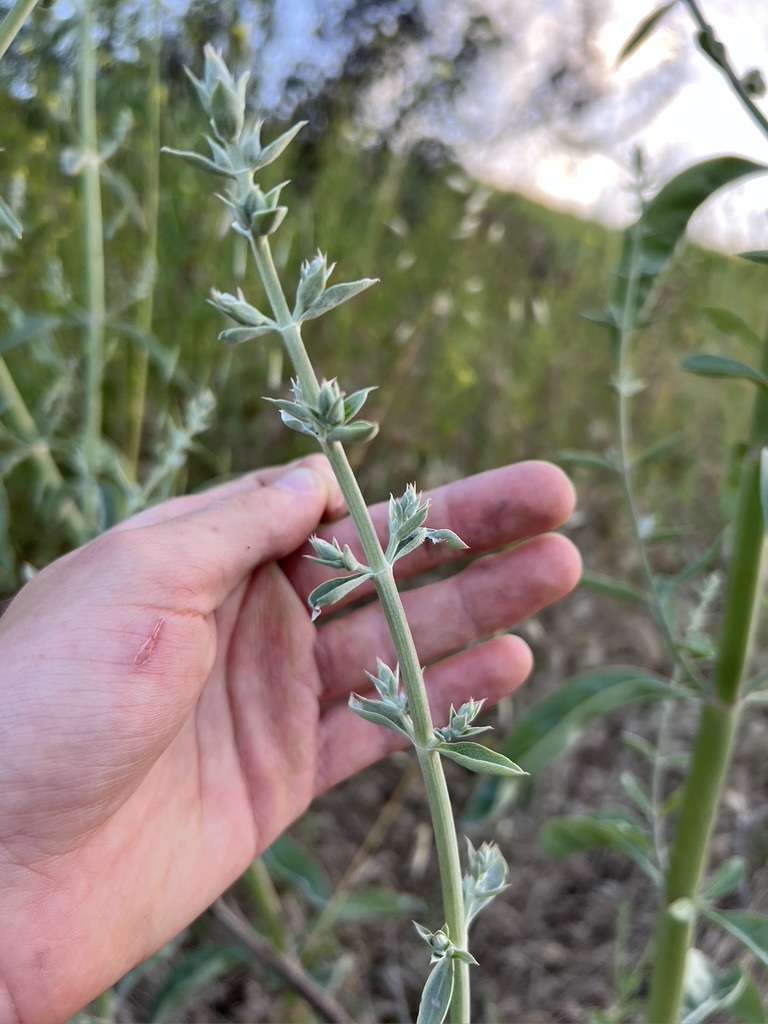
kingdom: Plantae
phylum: Tracheophyta
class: Magnoliopsida
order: Lamiales
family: Lamiaceae
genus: Salvia
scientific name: Salvia apiana
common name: White sage
